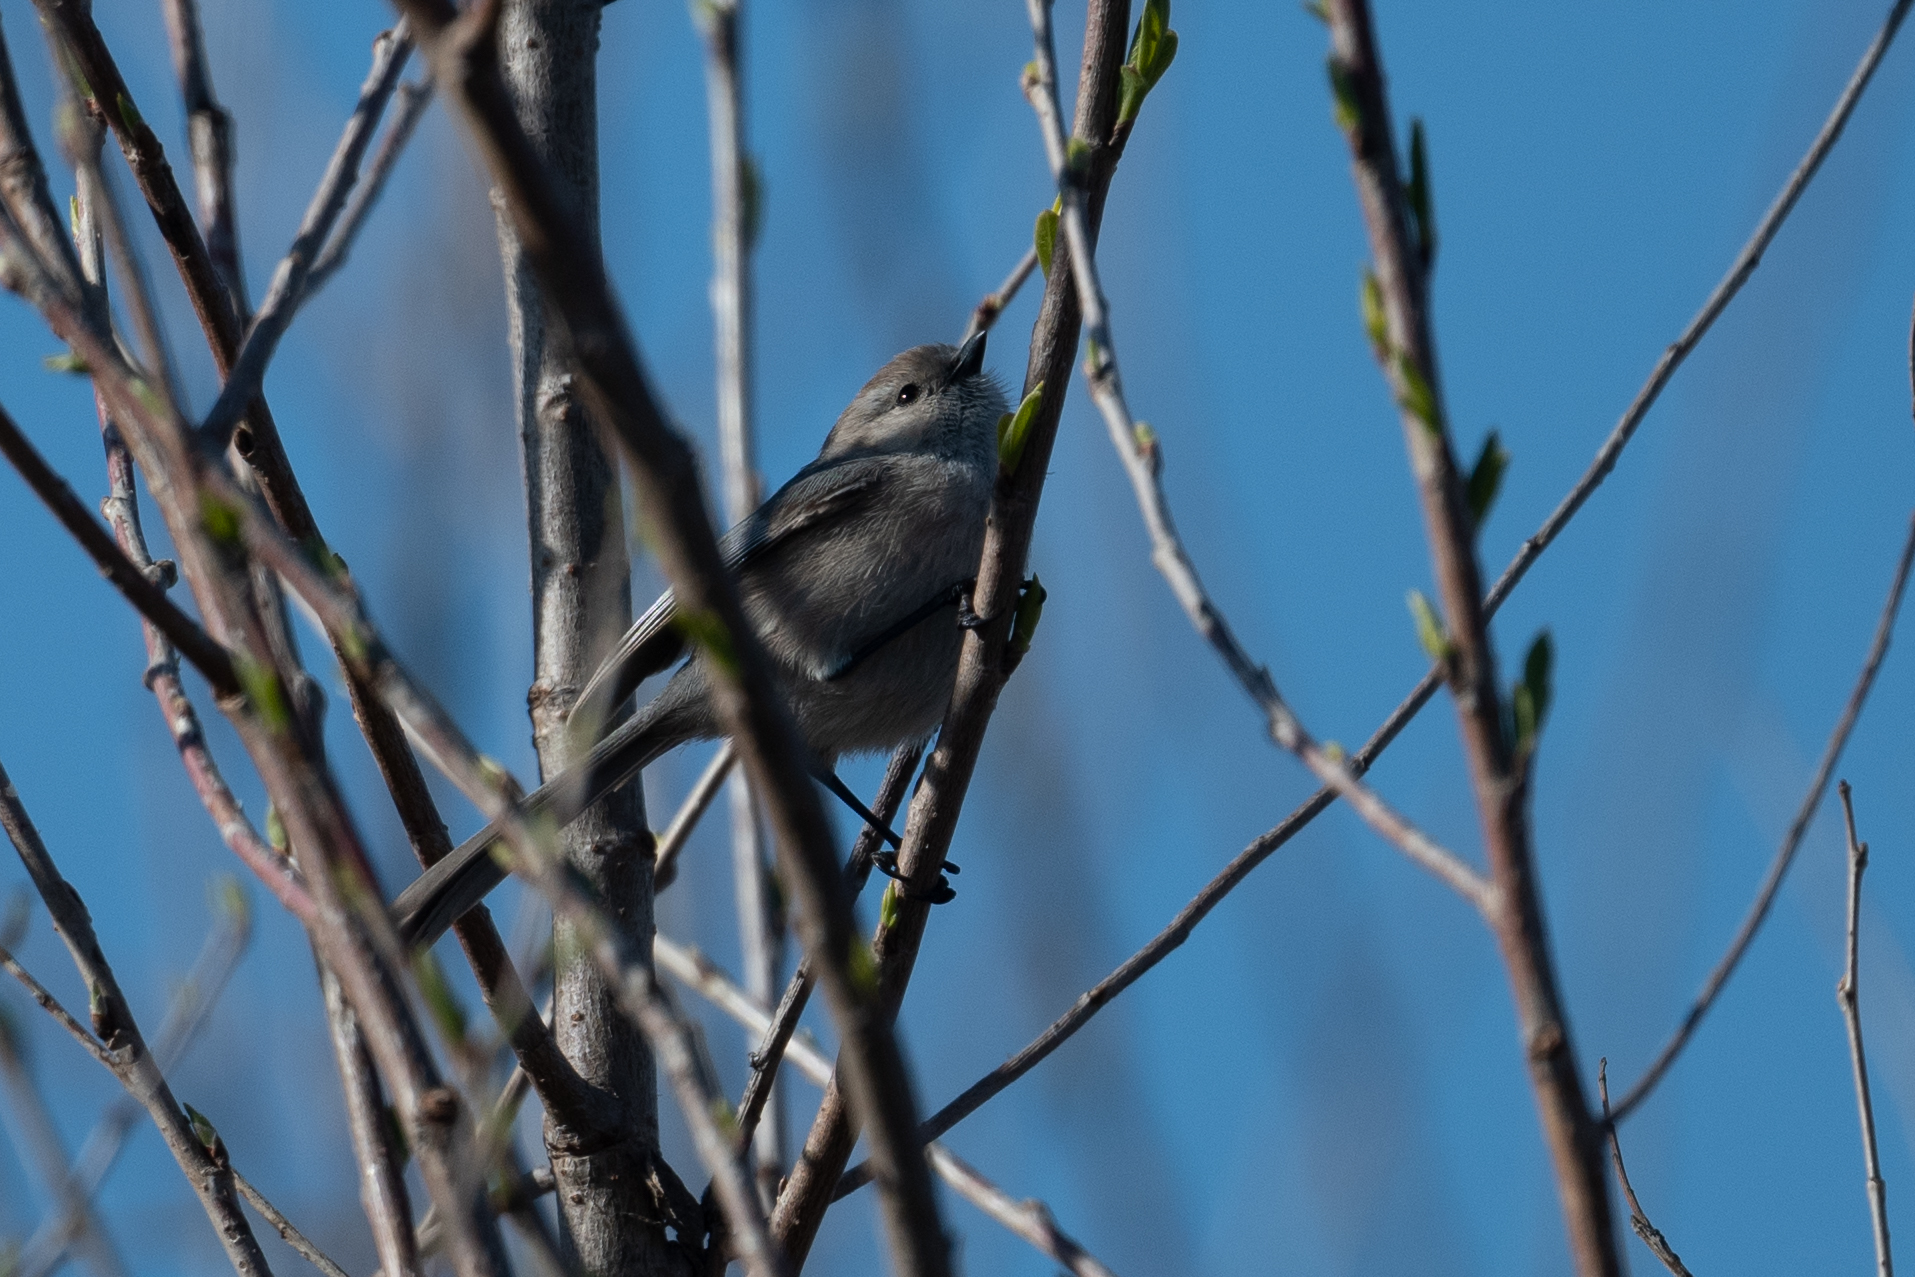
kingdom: Animalia
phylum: Chordata
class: Aves
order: Passeriformes
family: Aegithalidae
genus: Psaltriparus
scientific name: Psaltriparus minimus
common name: American bushtit
